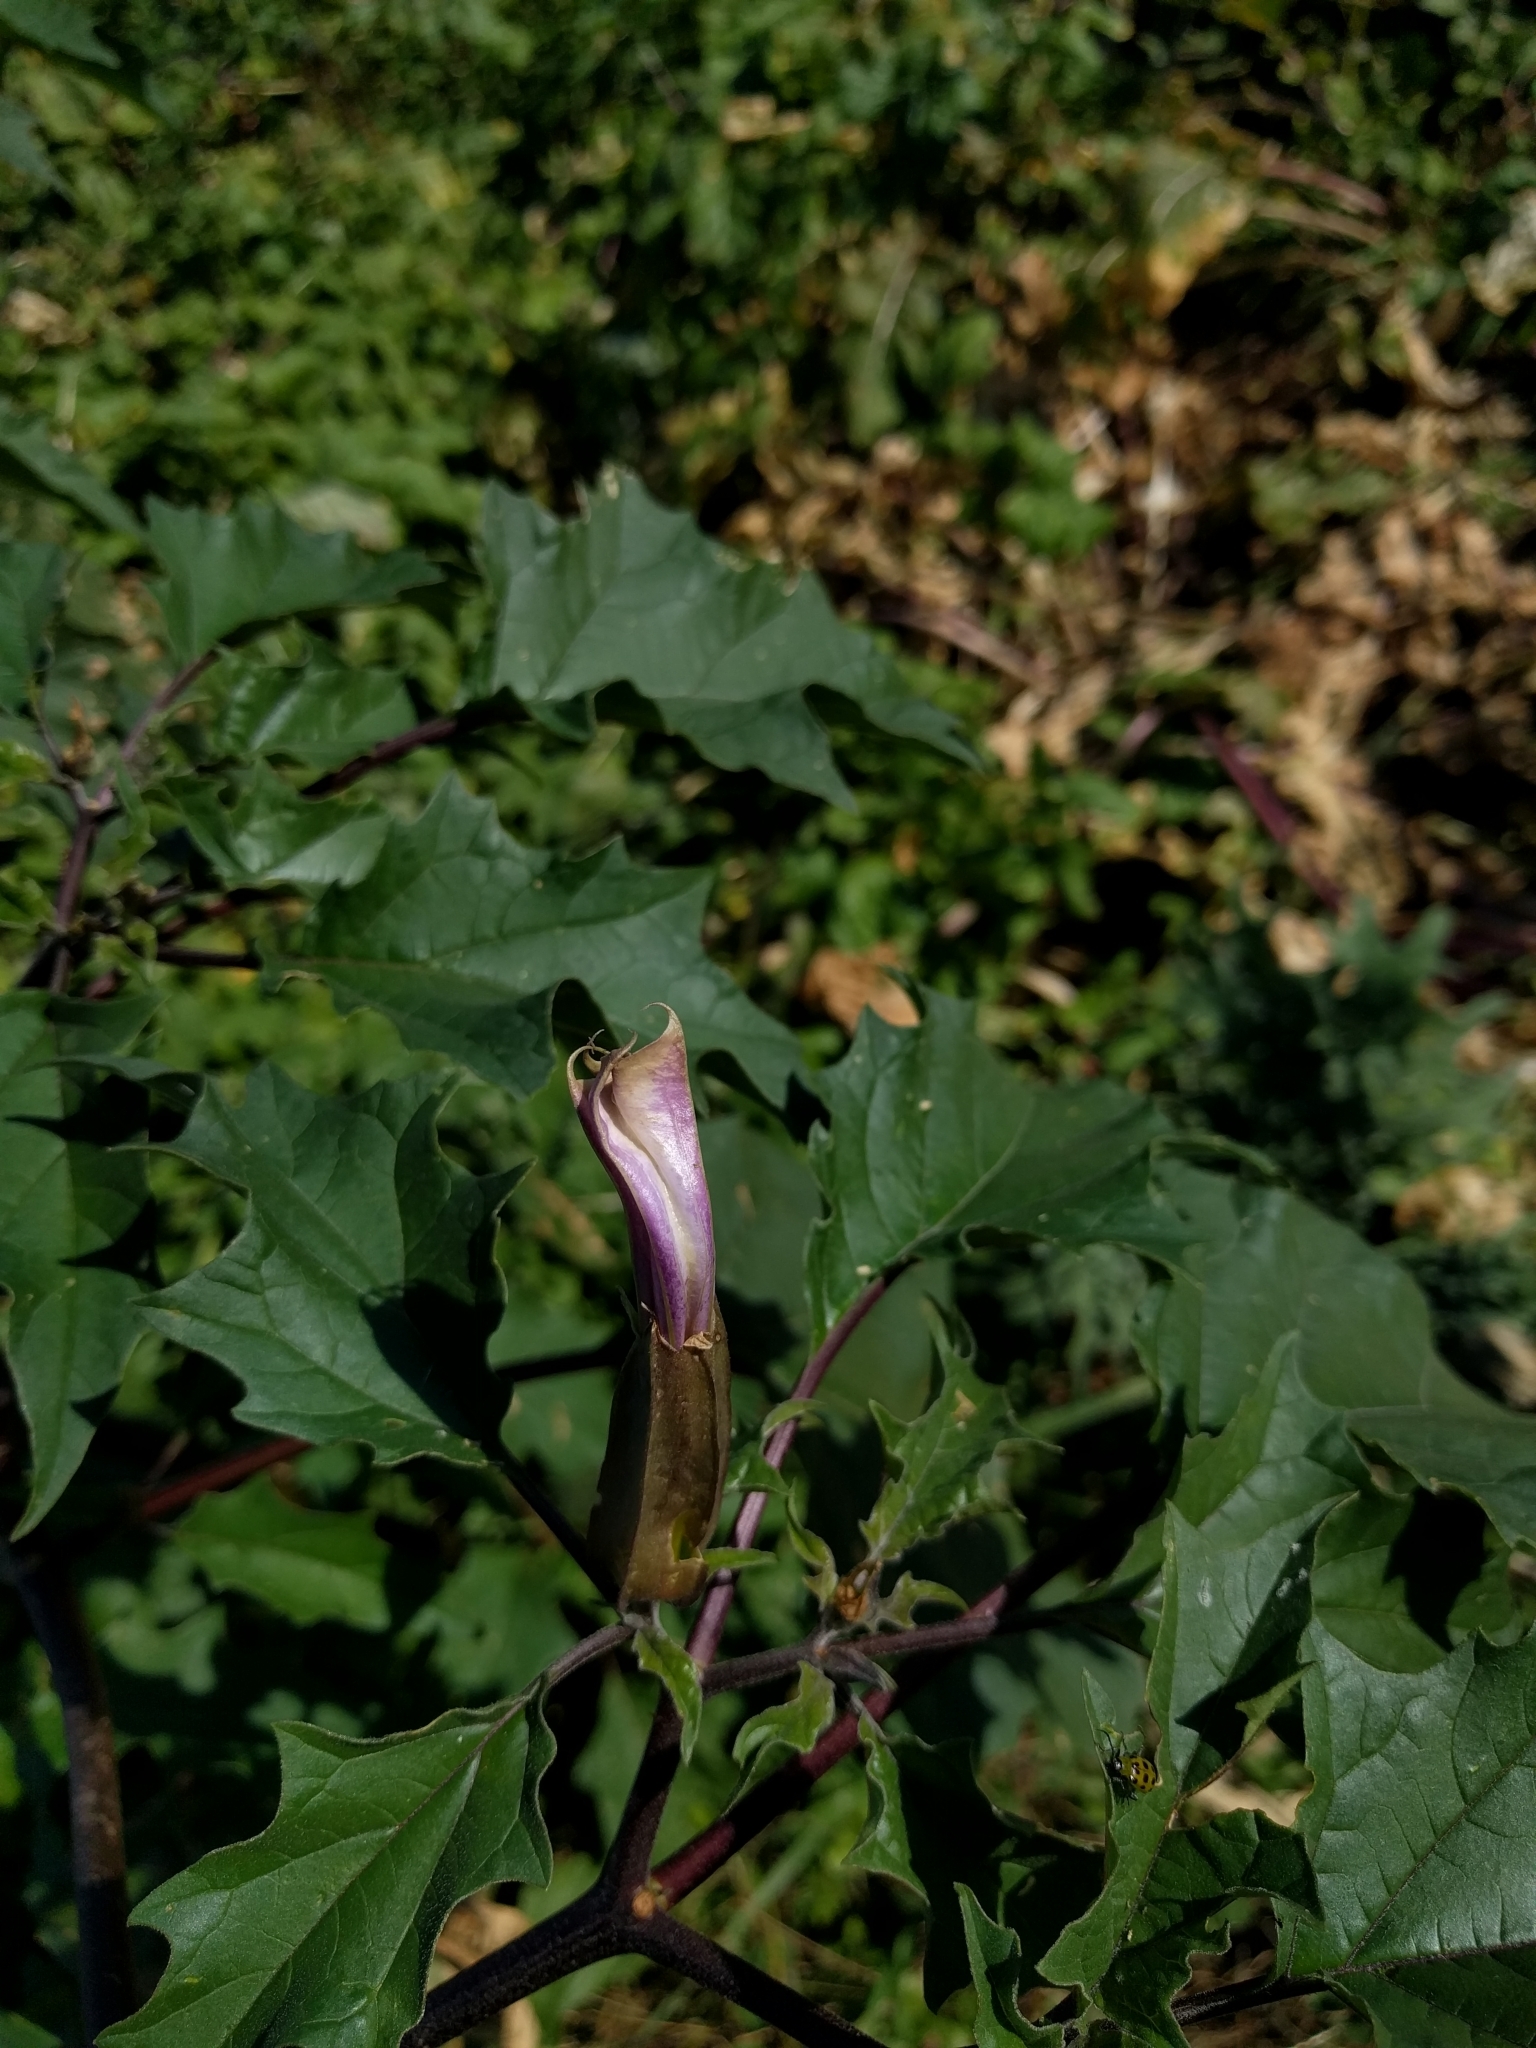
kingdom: Plantae
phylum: Tracheophyta
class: Magnoliopsida
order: Solanales
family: Solanaceae
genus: Datura
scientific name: Datura stramonium
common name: Thorn-apple
